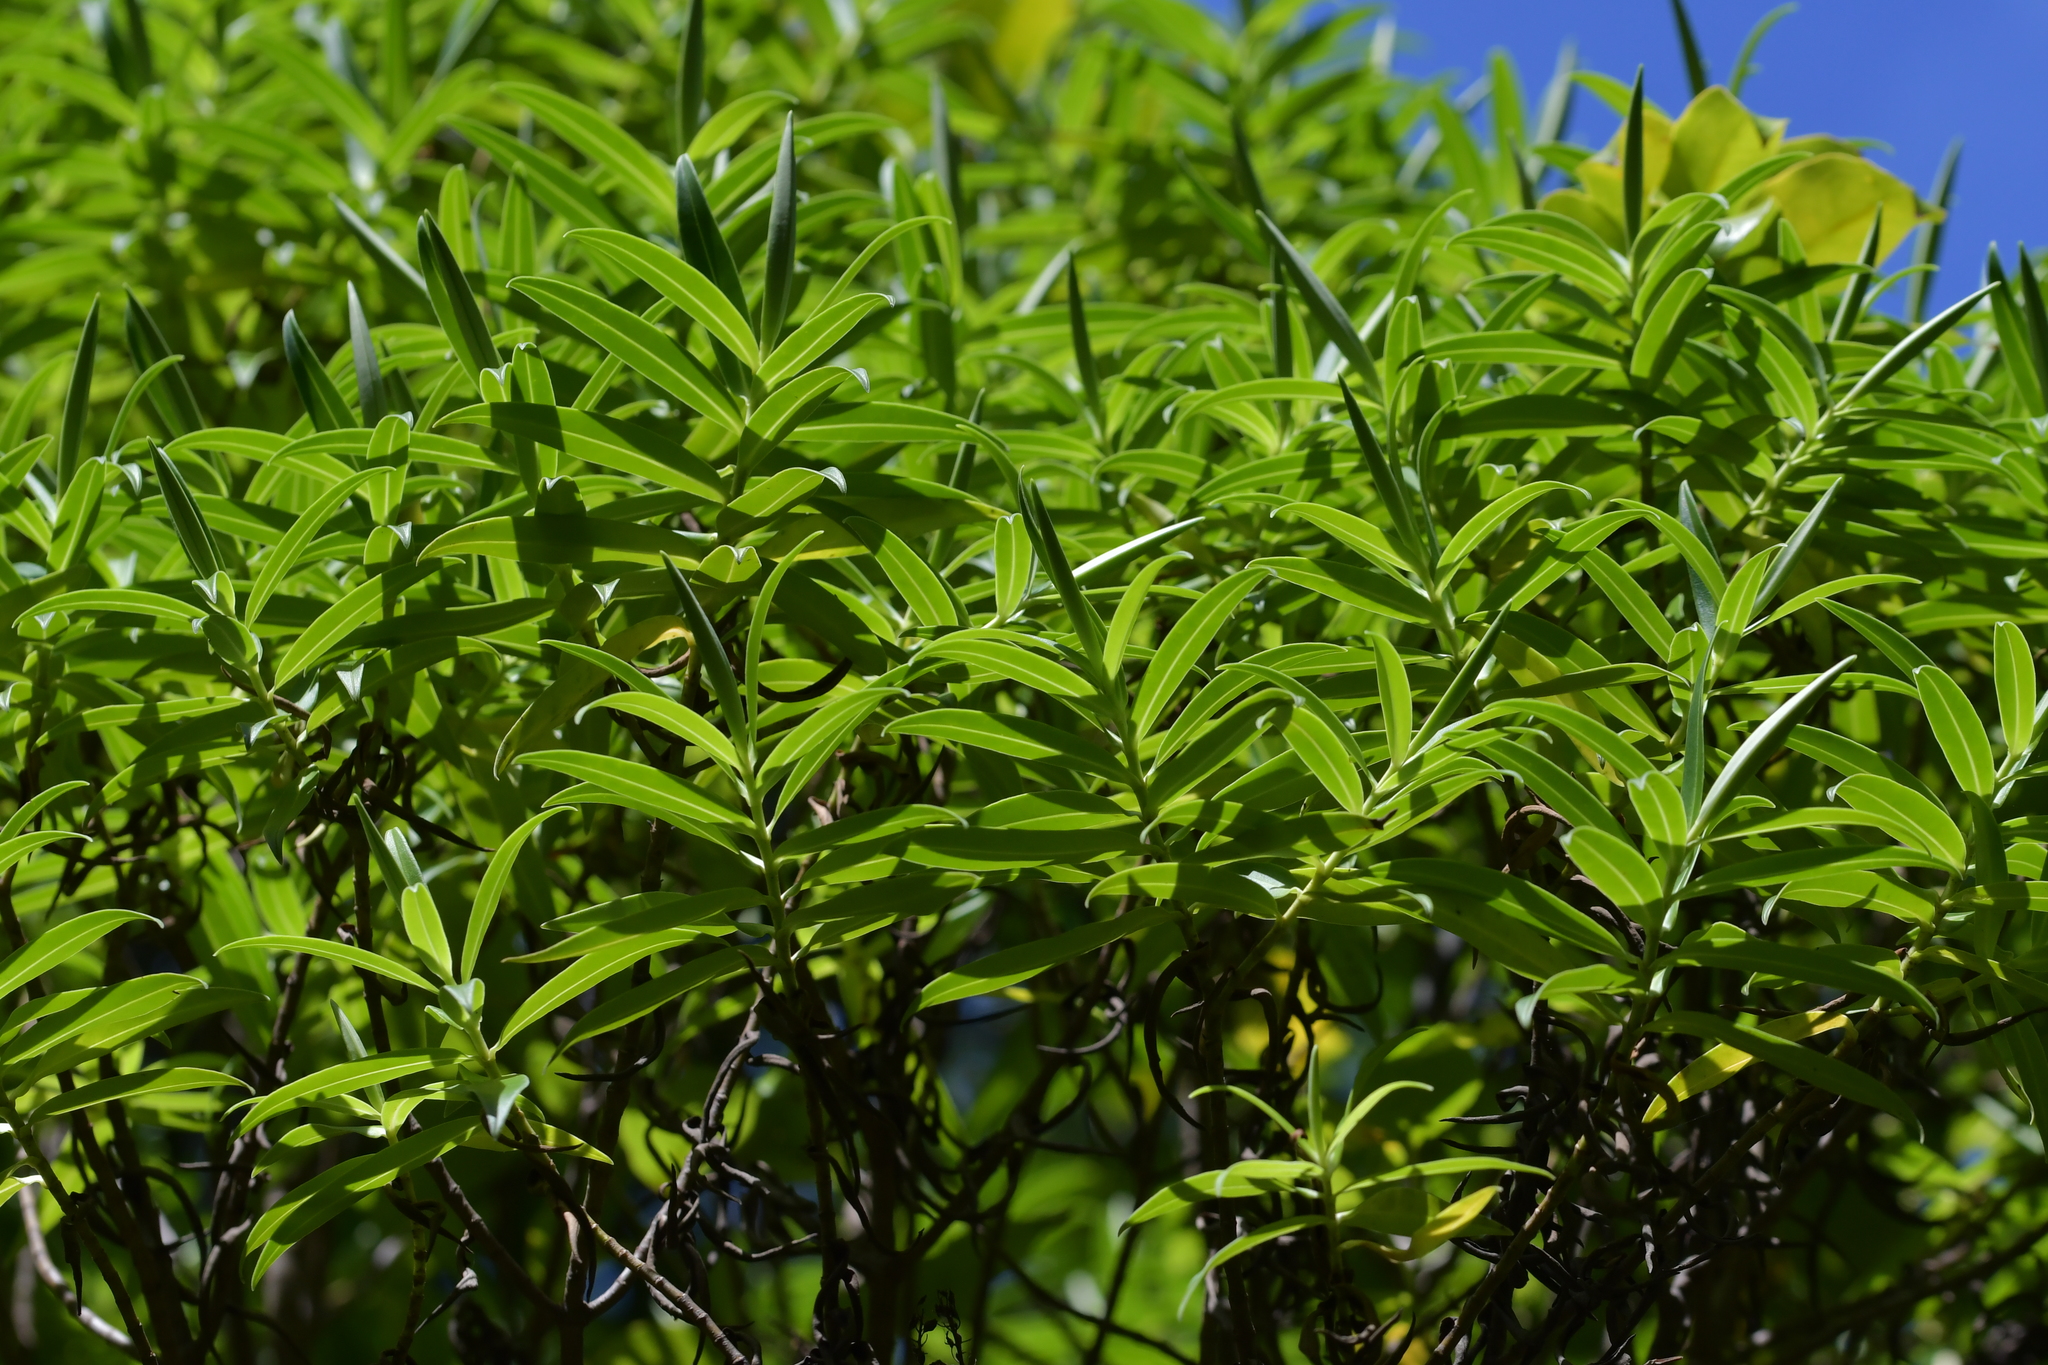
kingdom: Plantae
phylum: Tracheophyta
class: Magnoliopsida
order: Lamiales
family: Plantaginaceae
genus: Veronica
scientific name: Veronica barkeri
